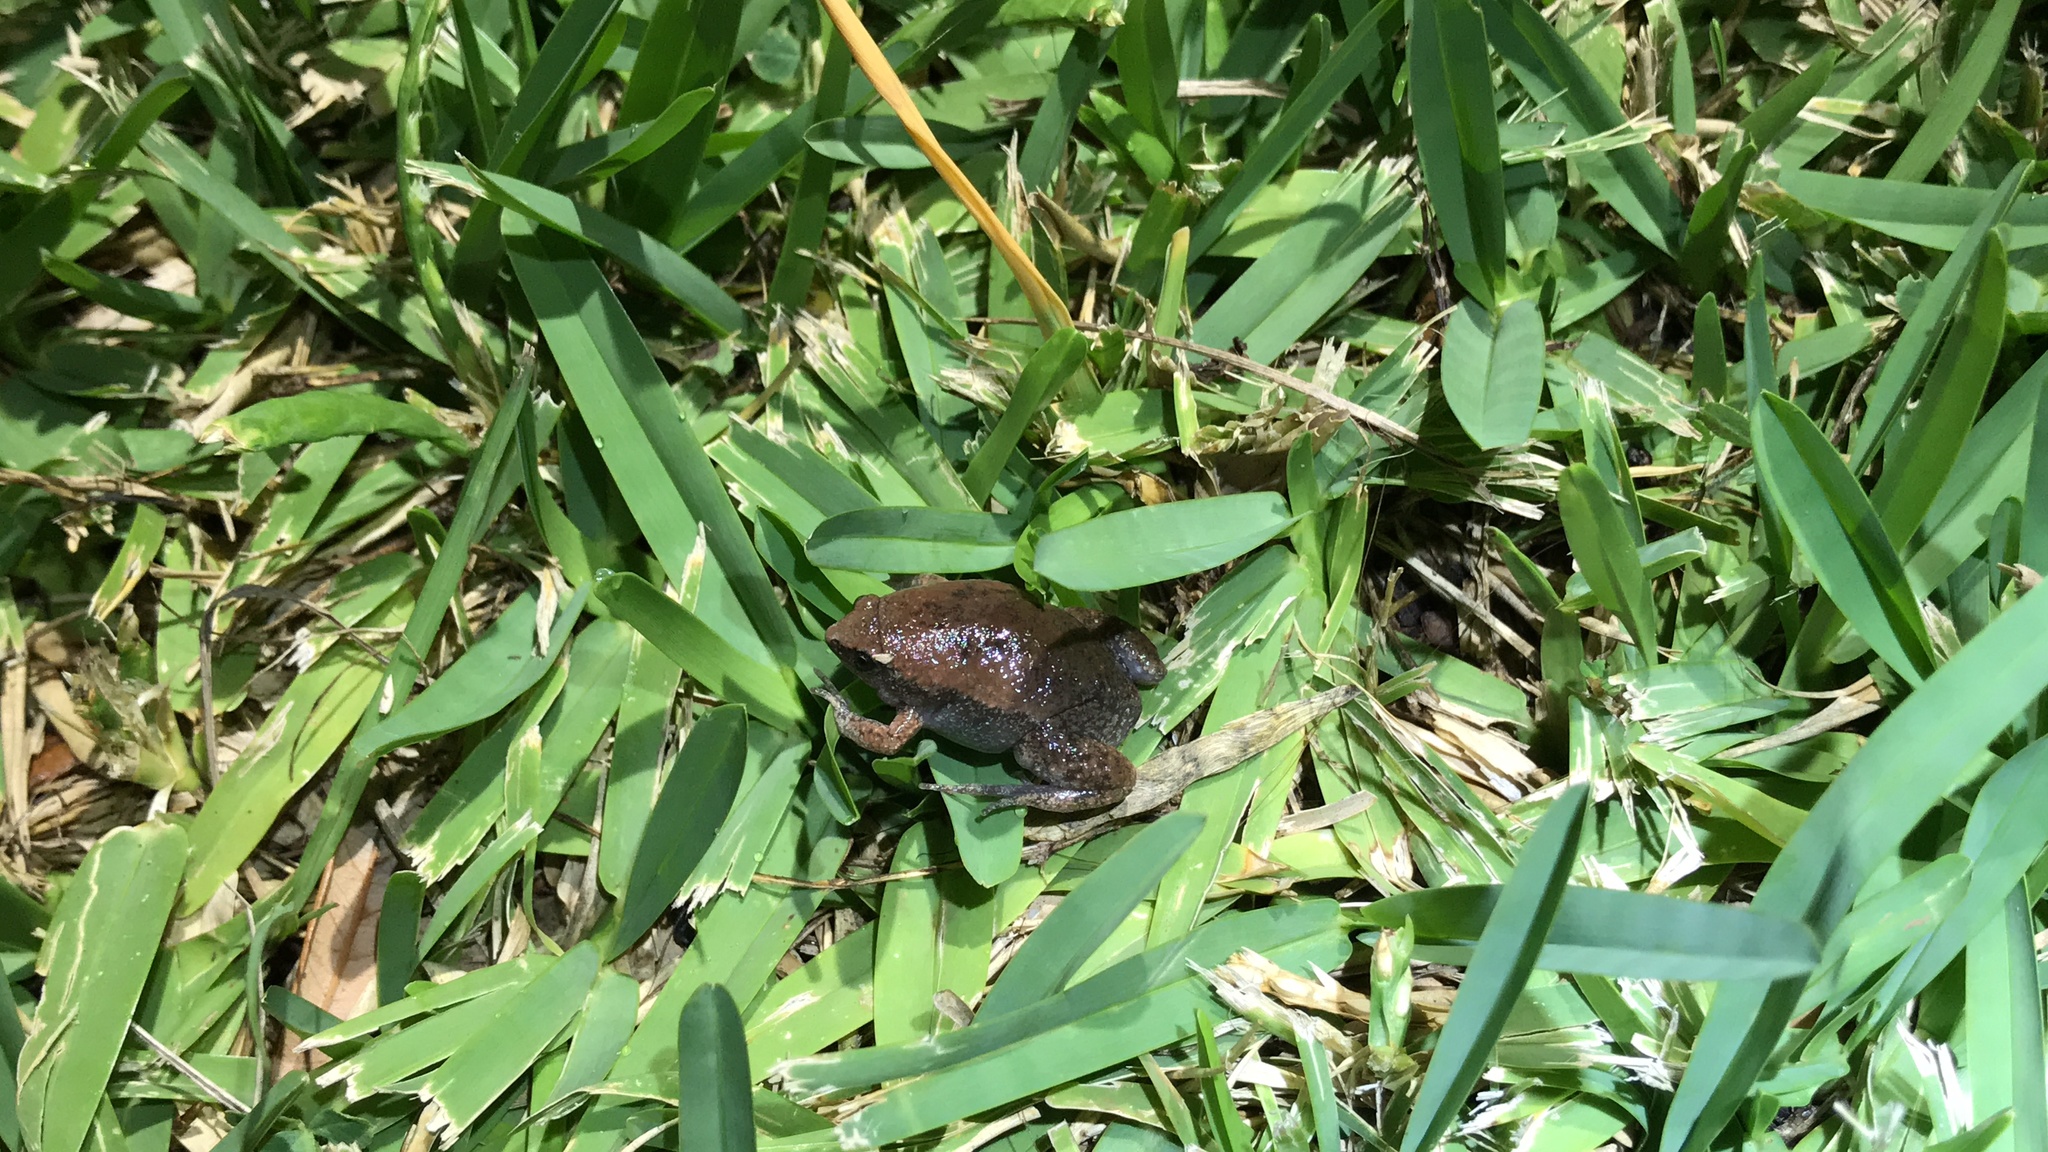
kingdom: Animalia
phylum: Chordata
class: Amphibia
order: Anura
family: Microhylidae
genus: Gastrophryne
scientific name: Gastrophryne carolinensis
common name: Eastern narrowmouth toad
